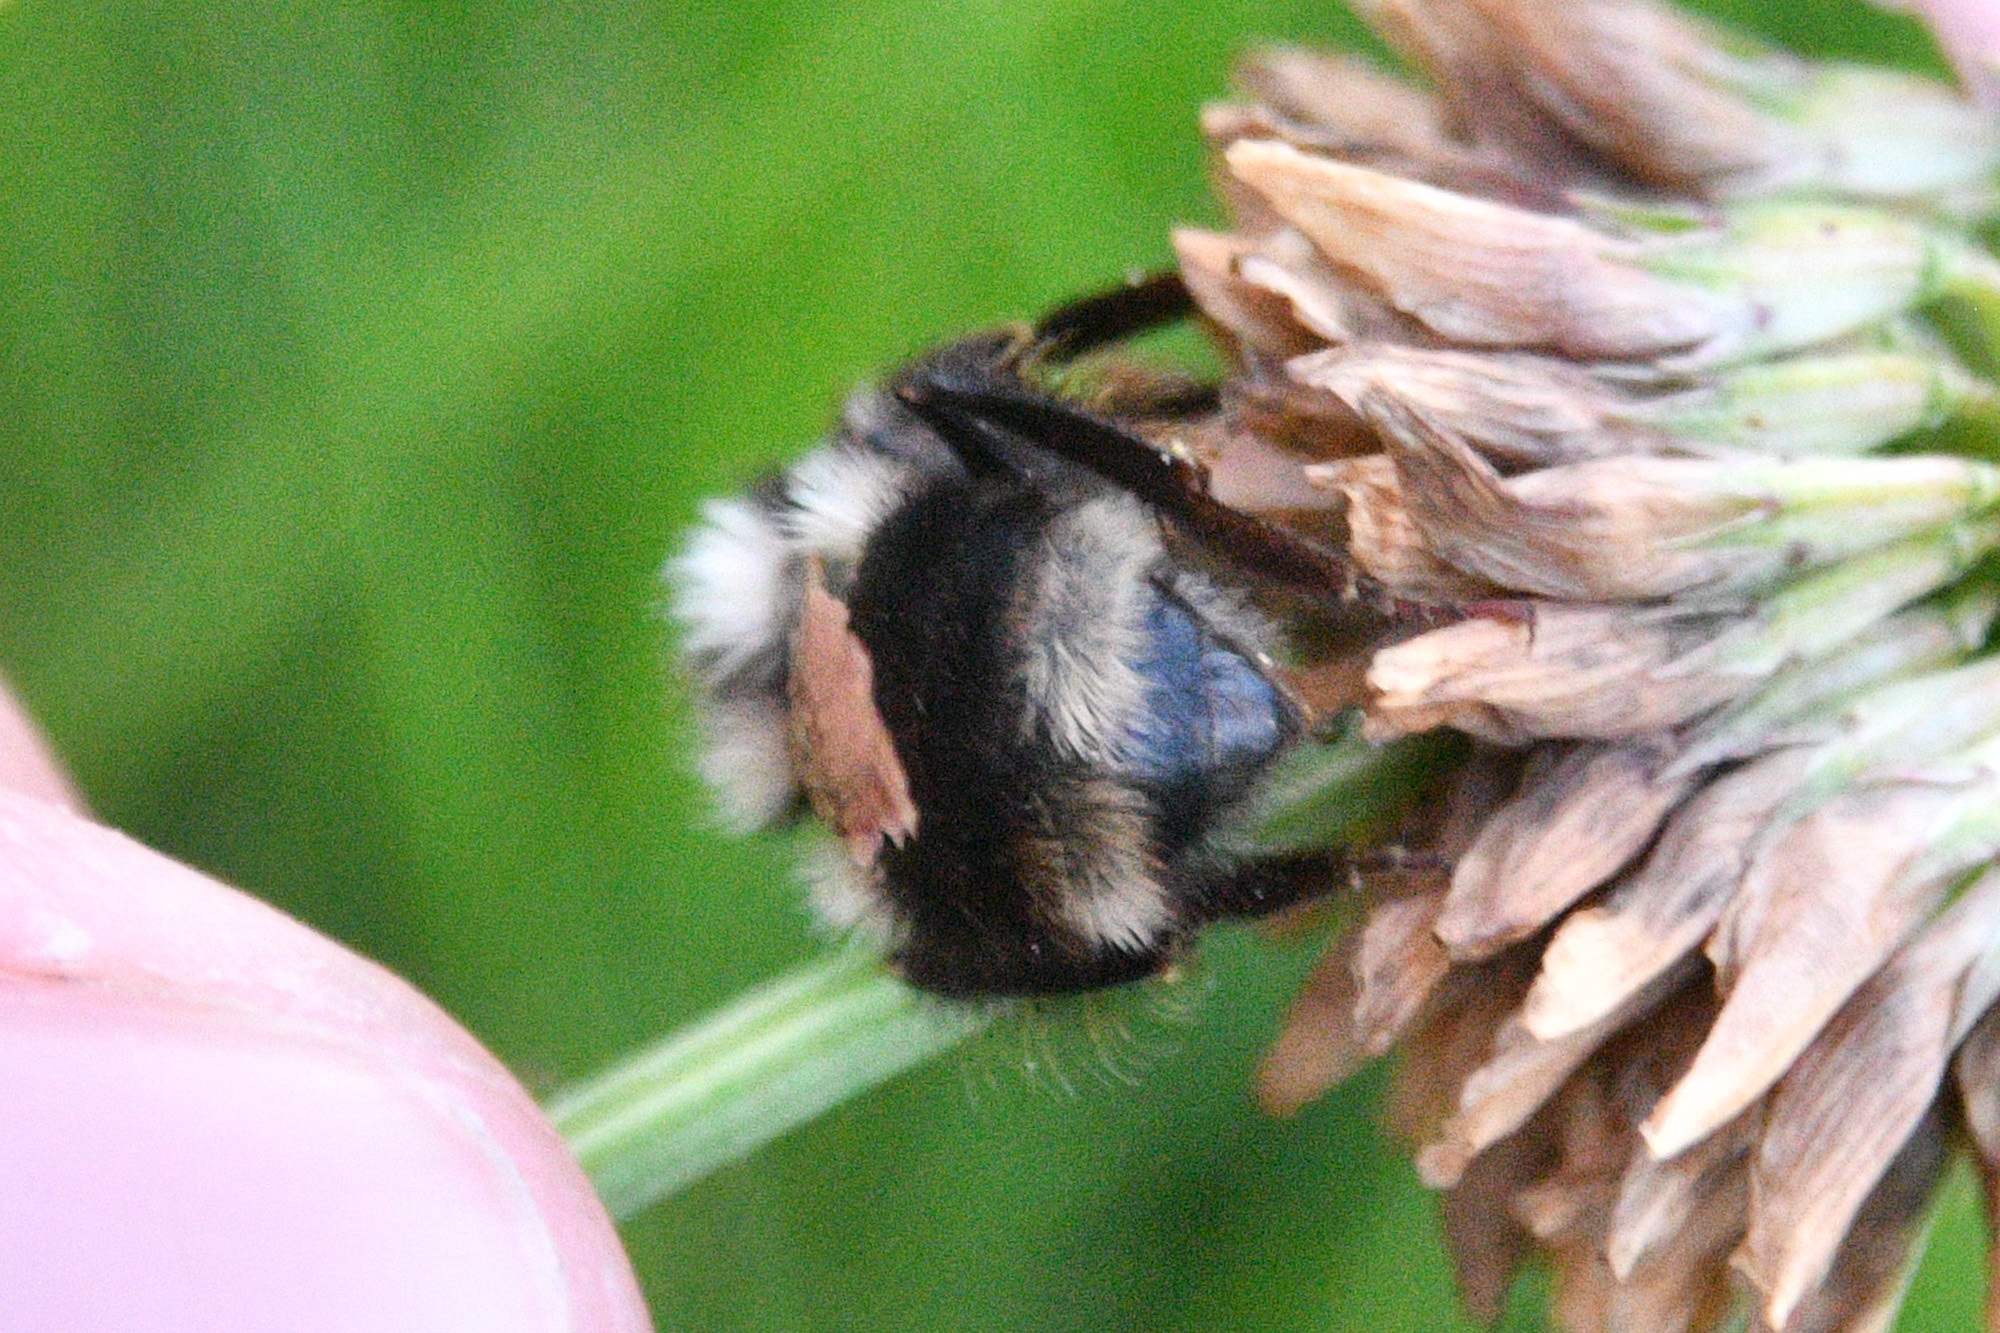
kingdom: Animalia
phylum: Arthropoda
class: Insecta
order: Hymenoptera
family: Apidae
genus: Bombus
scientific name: Bombus vancouverensis
